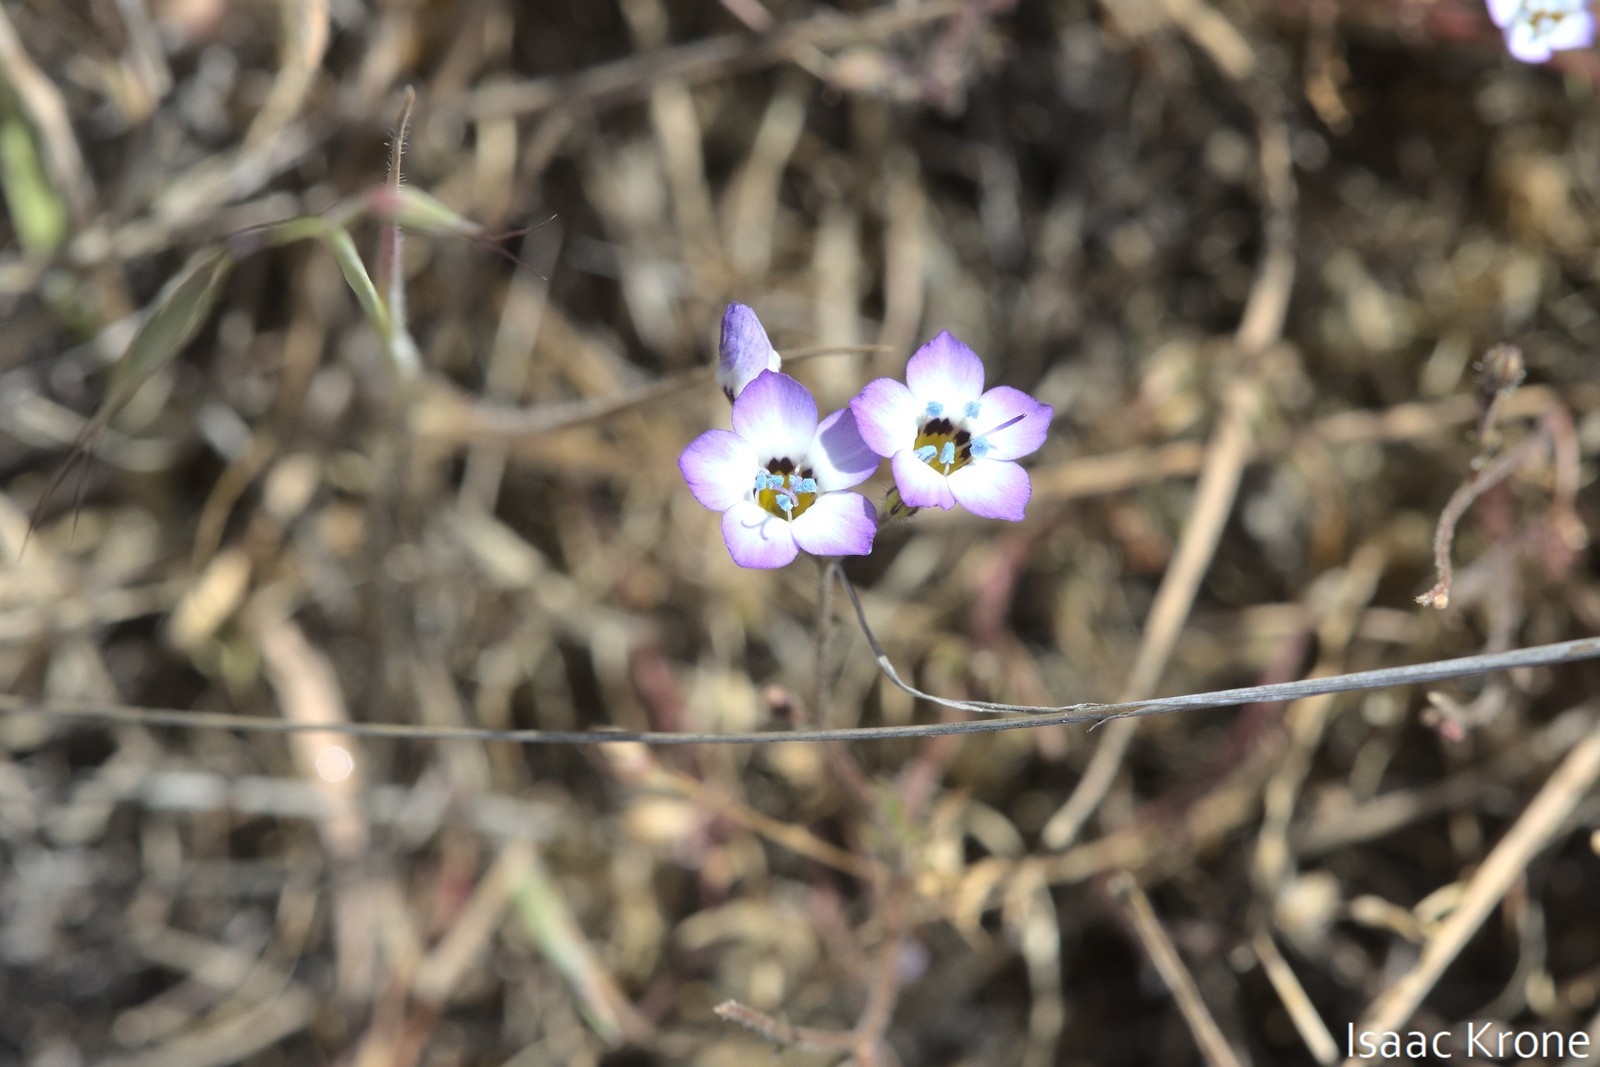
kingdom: Plantae
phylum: Tracheophyta
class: Magnoliopsida
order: Ericales
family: Polemoniaceae
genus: Gilia
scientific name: Gilia tricolor
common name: Bird's-eyes
